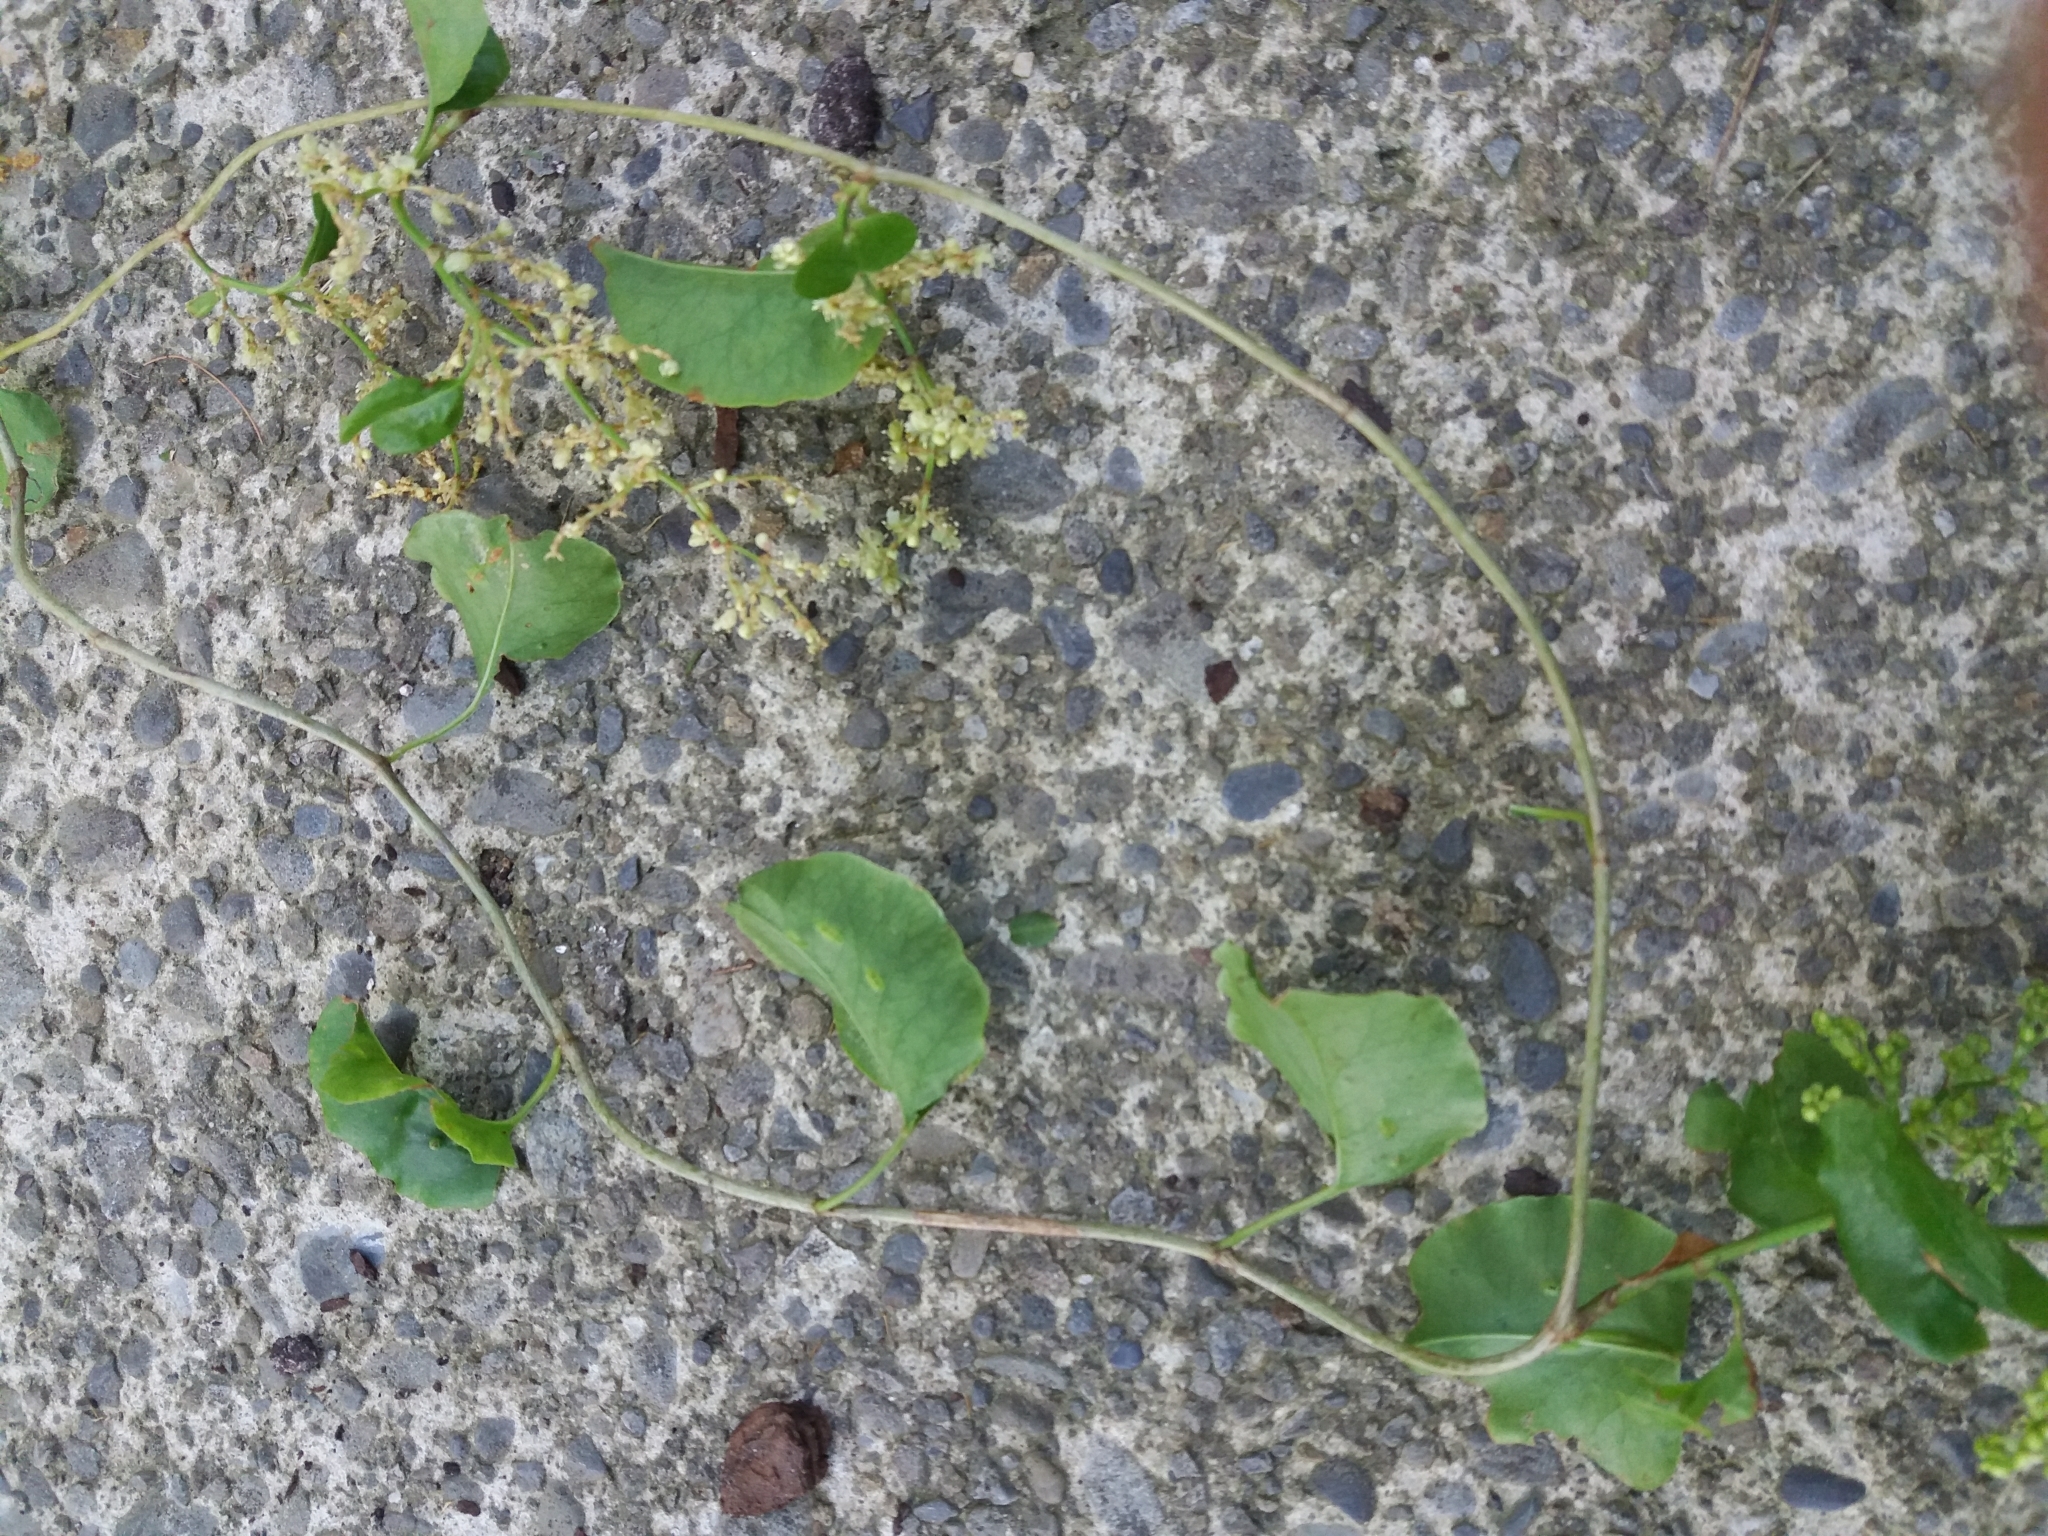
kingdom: Plantae
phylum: Tracheophyta
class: Magnoliopsida
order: Caryophyllales
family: Polygonaceae
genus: Muehlenbeckia
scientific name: Muehlenbeckia australis
